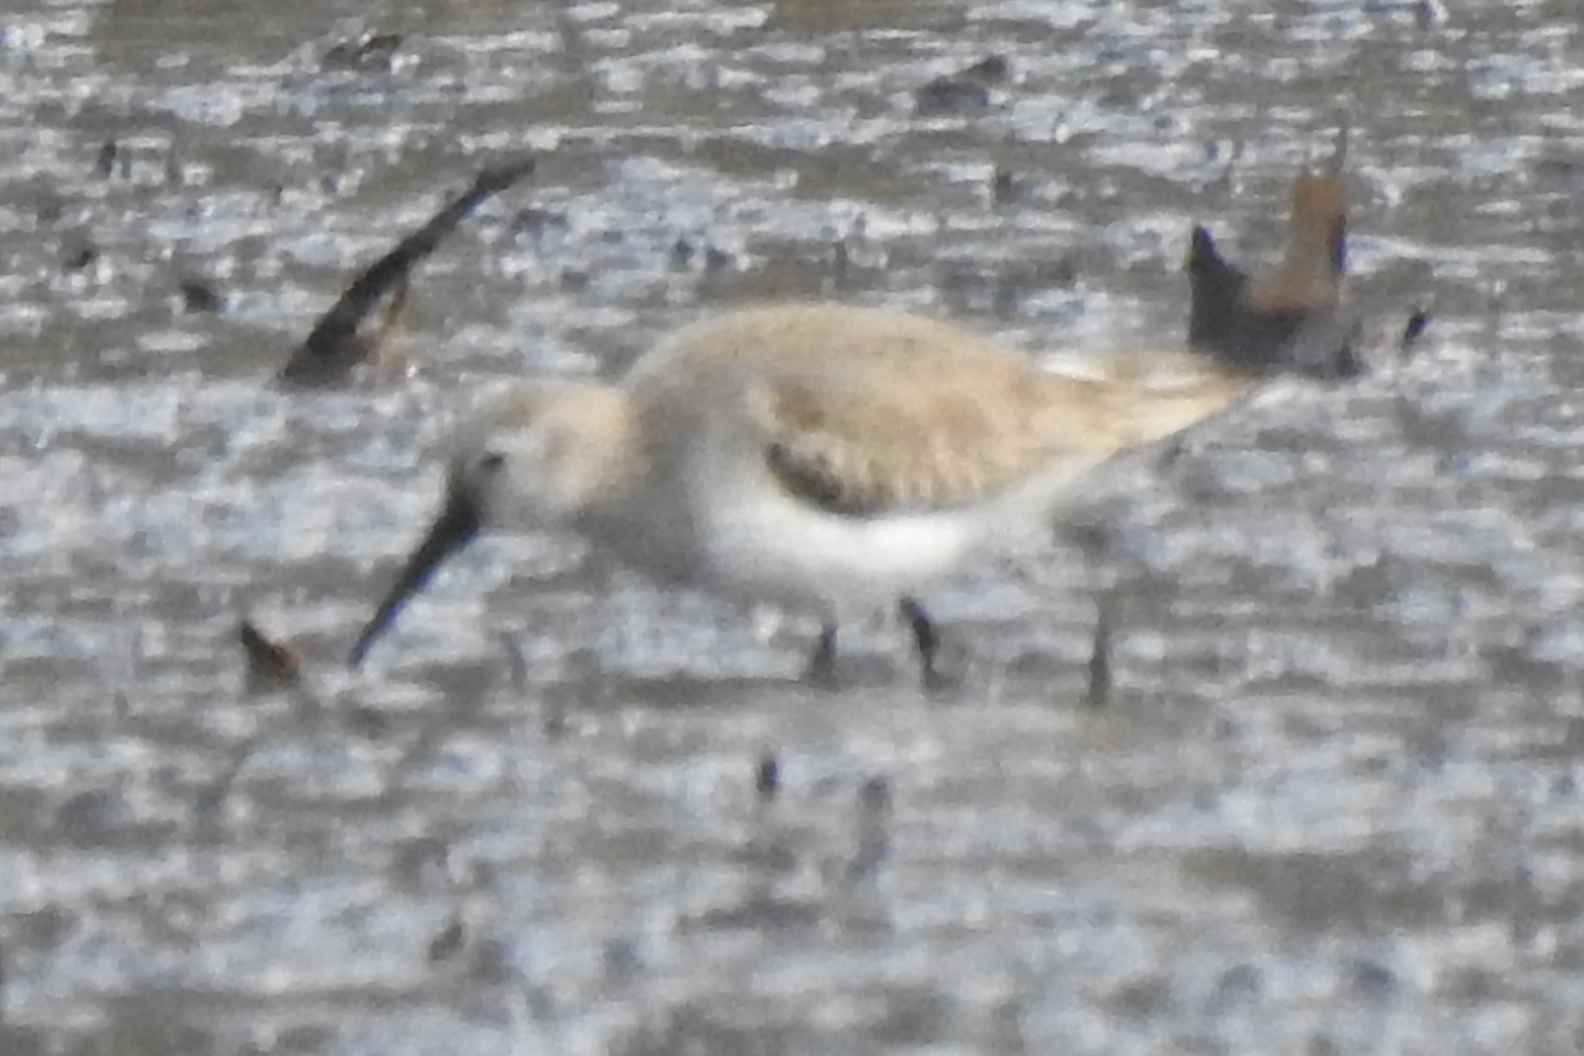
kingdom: Animalia
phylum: Chordata
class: Aves
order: Charadriiformes
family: Scolopacidae
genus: Calidris
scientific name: Calidris alpina
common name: Dunlin
